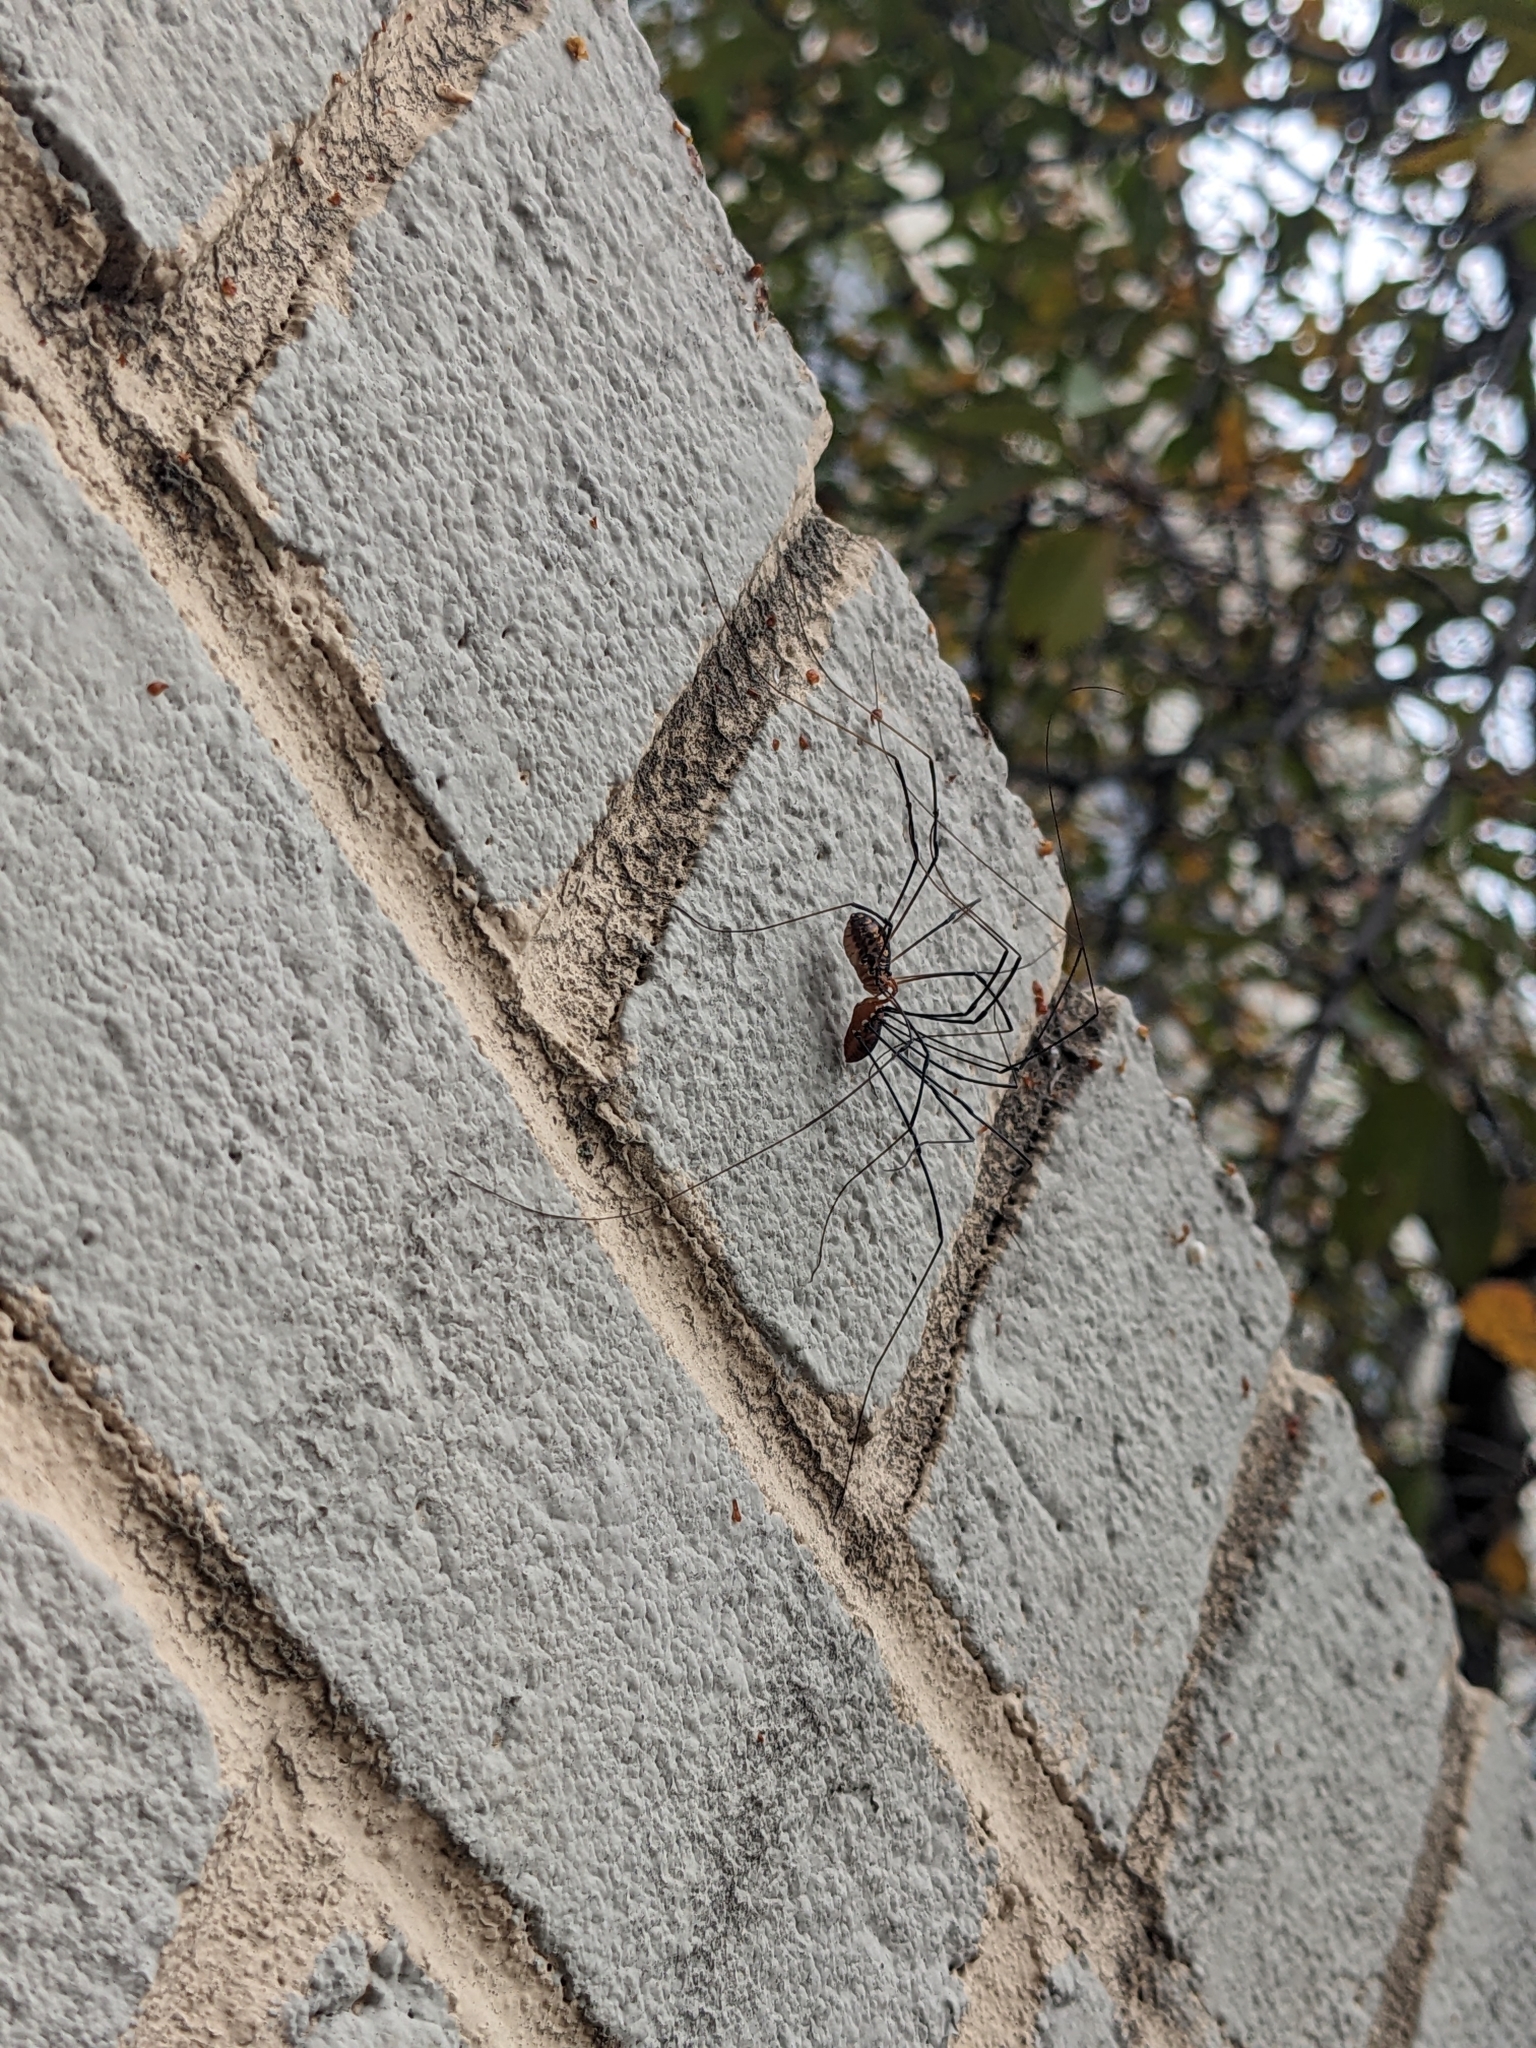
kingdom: Animalia
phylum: Arthropoda
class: Arachnida
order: Opiliones
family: Sclerosomatidae
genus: Leiobunum
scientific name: Leiobunum vittatum
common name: Eastern harvestman
